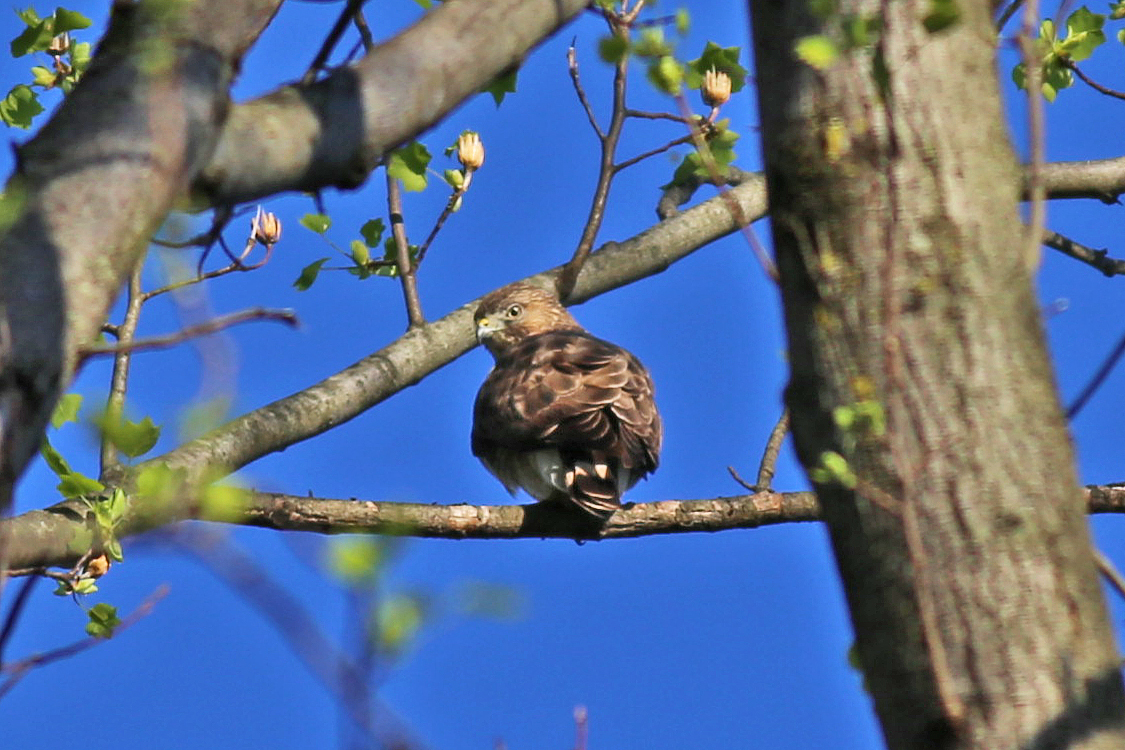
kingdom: Animalia
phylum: Chordata
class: Aves
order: Accipitriformes
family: Accipitridae
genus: Buteo
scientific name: Buteo platypterus
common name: Broad-winged hawk
